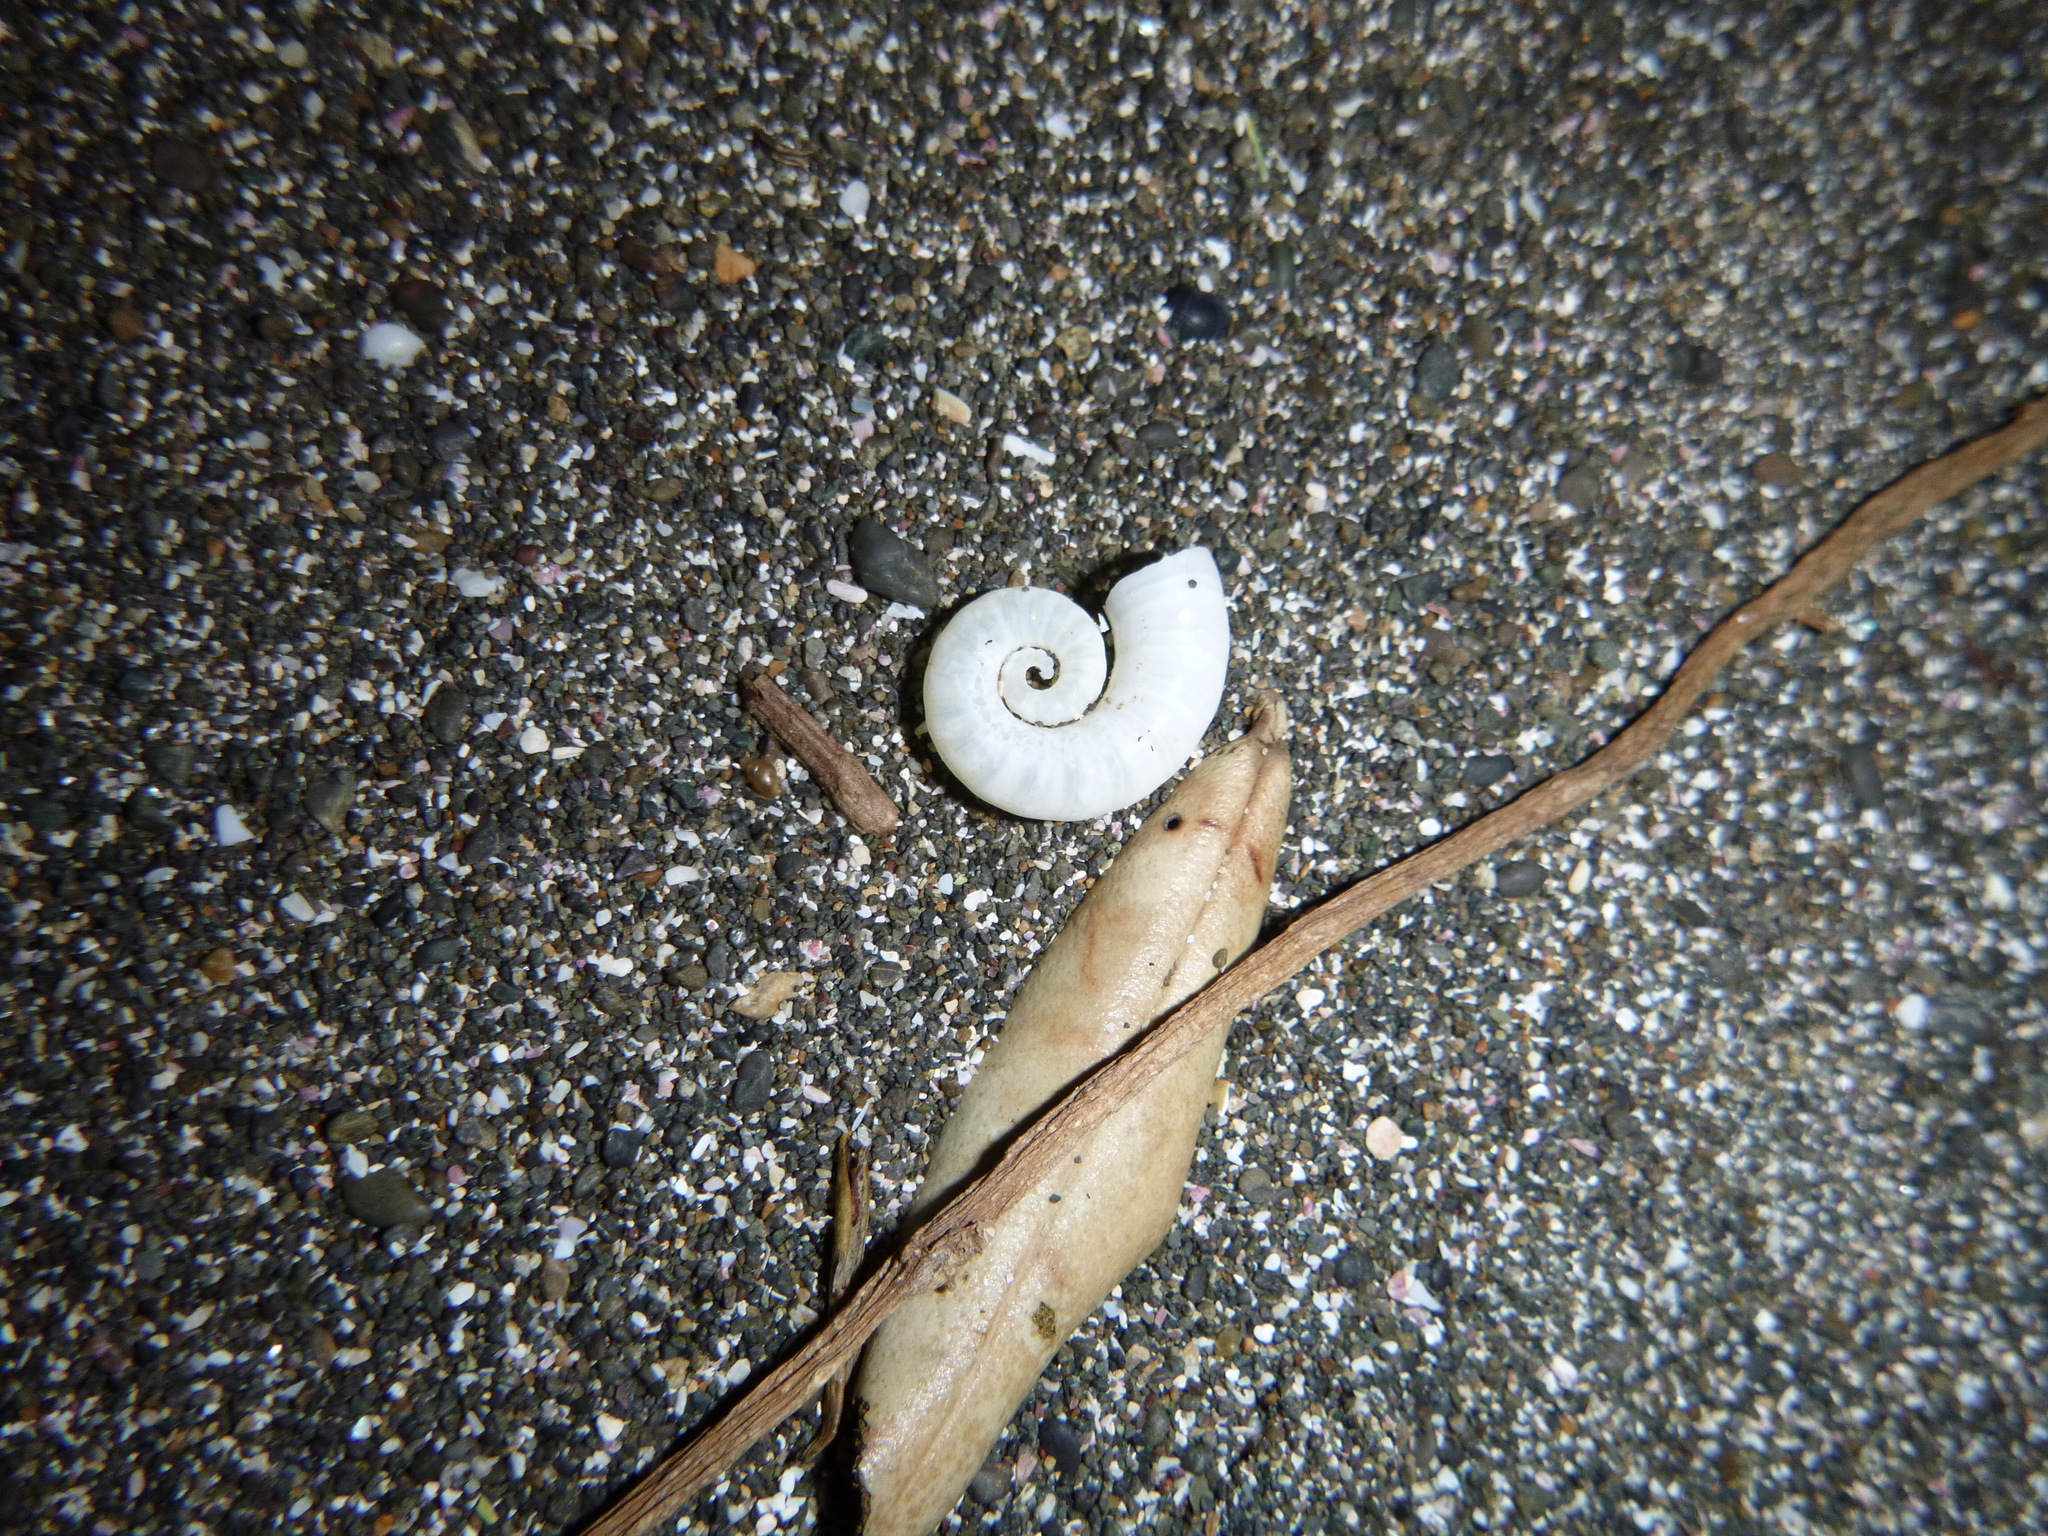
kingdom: Animalia
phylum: Mollusca
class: Cephalopoda
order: Spirulida
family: Spirulidae
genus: Spirula
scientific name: Spirula spirula
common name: Ram's horn squid
